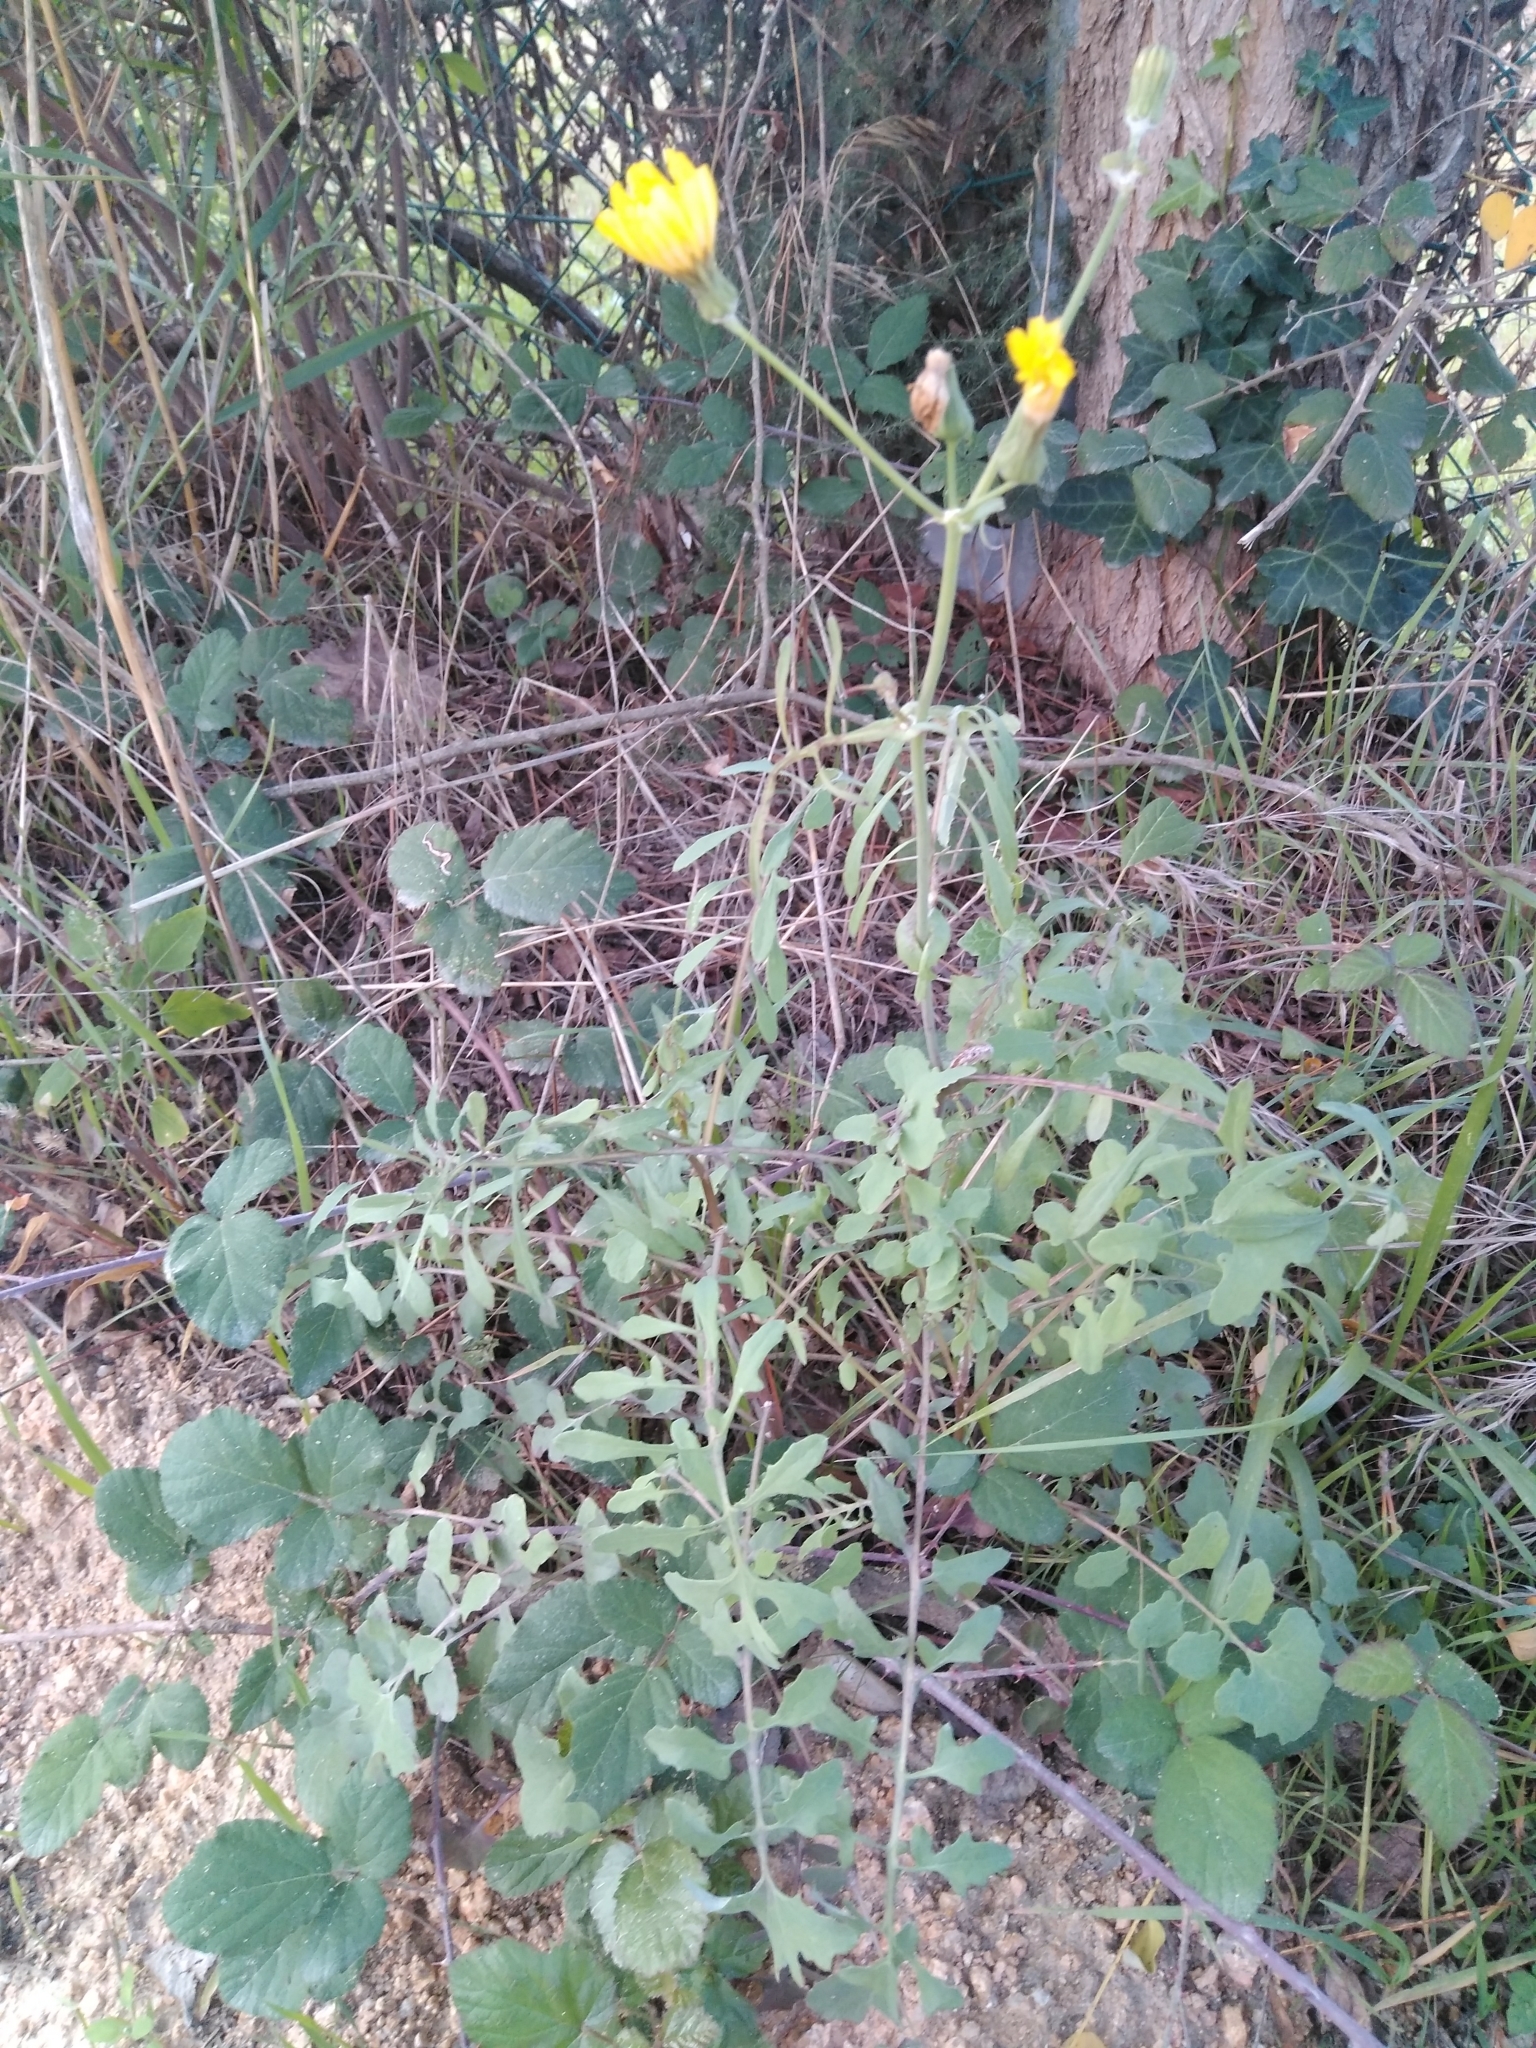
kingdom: Plantae
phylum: Tracheophyta
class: Magnoliopsida
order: Asterales
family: Asteraceae
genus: Sonchus
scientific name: Sonchus tenerrimus
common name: Clammy sowthistle
